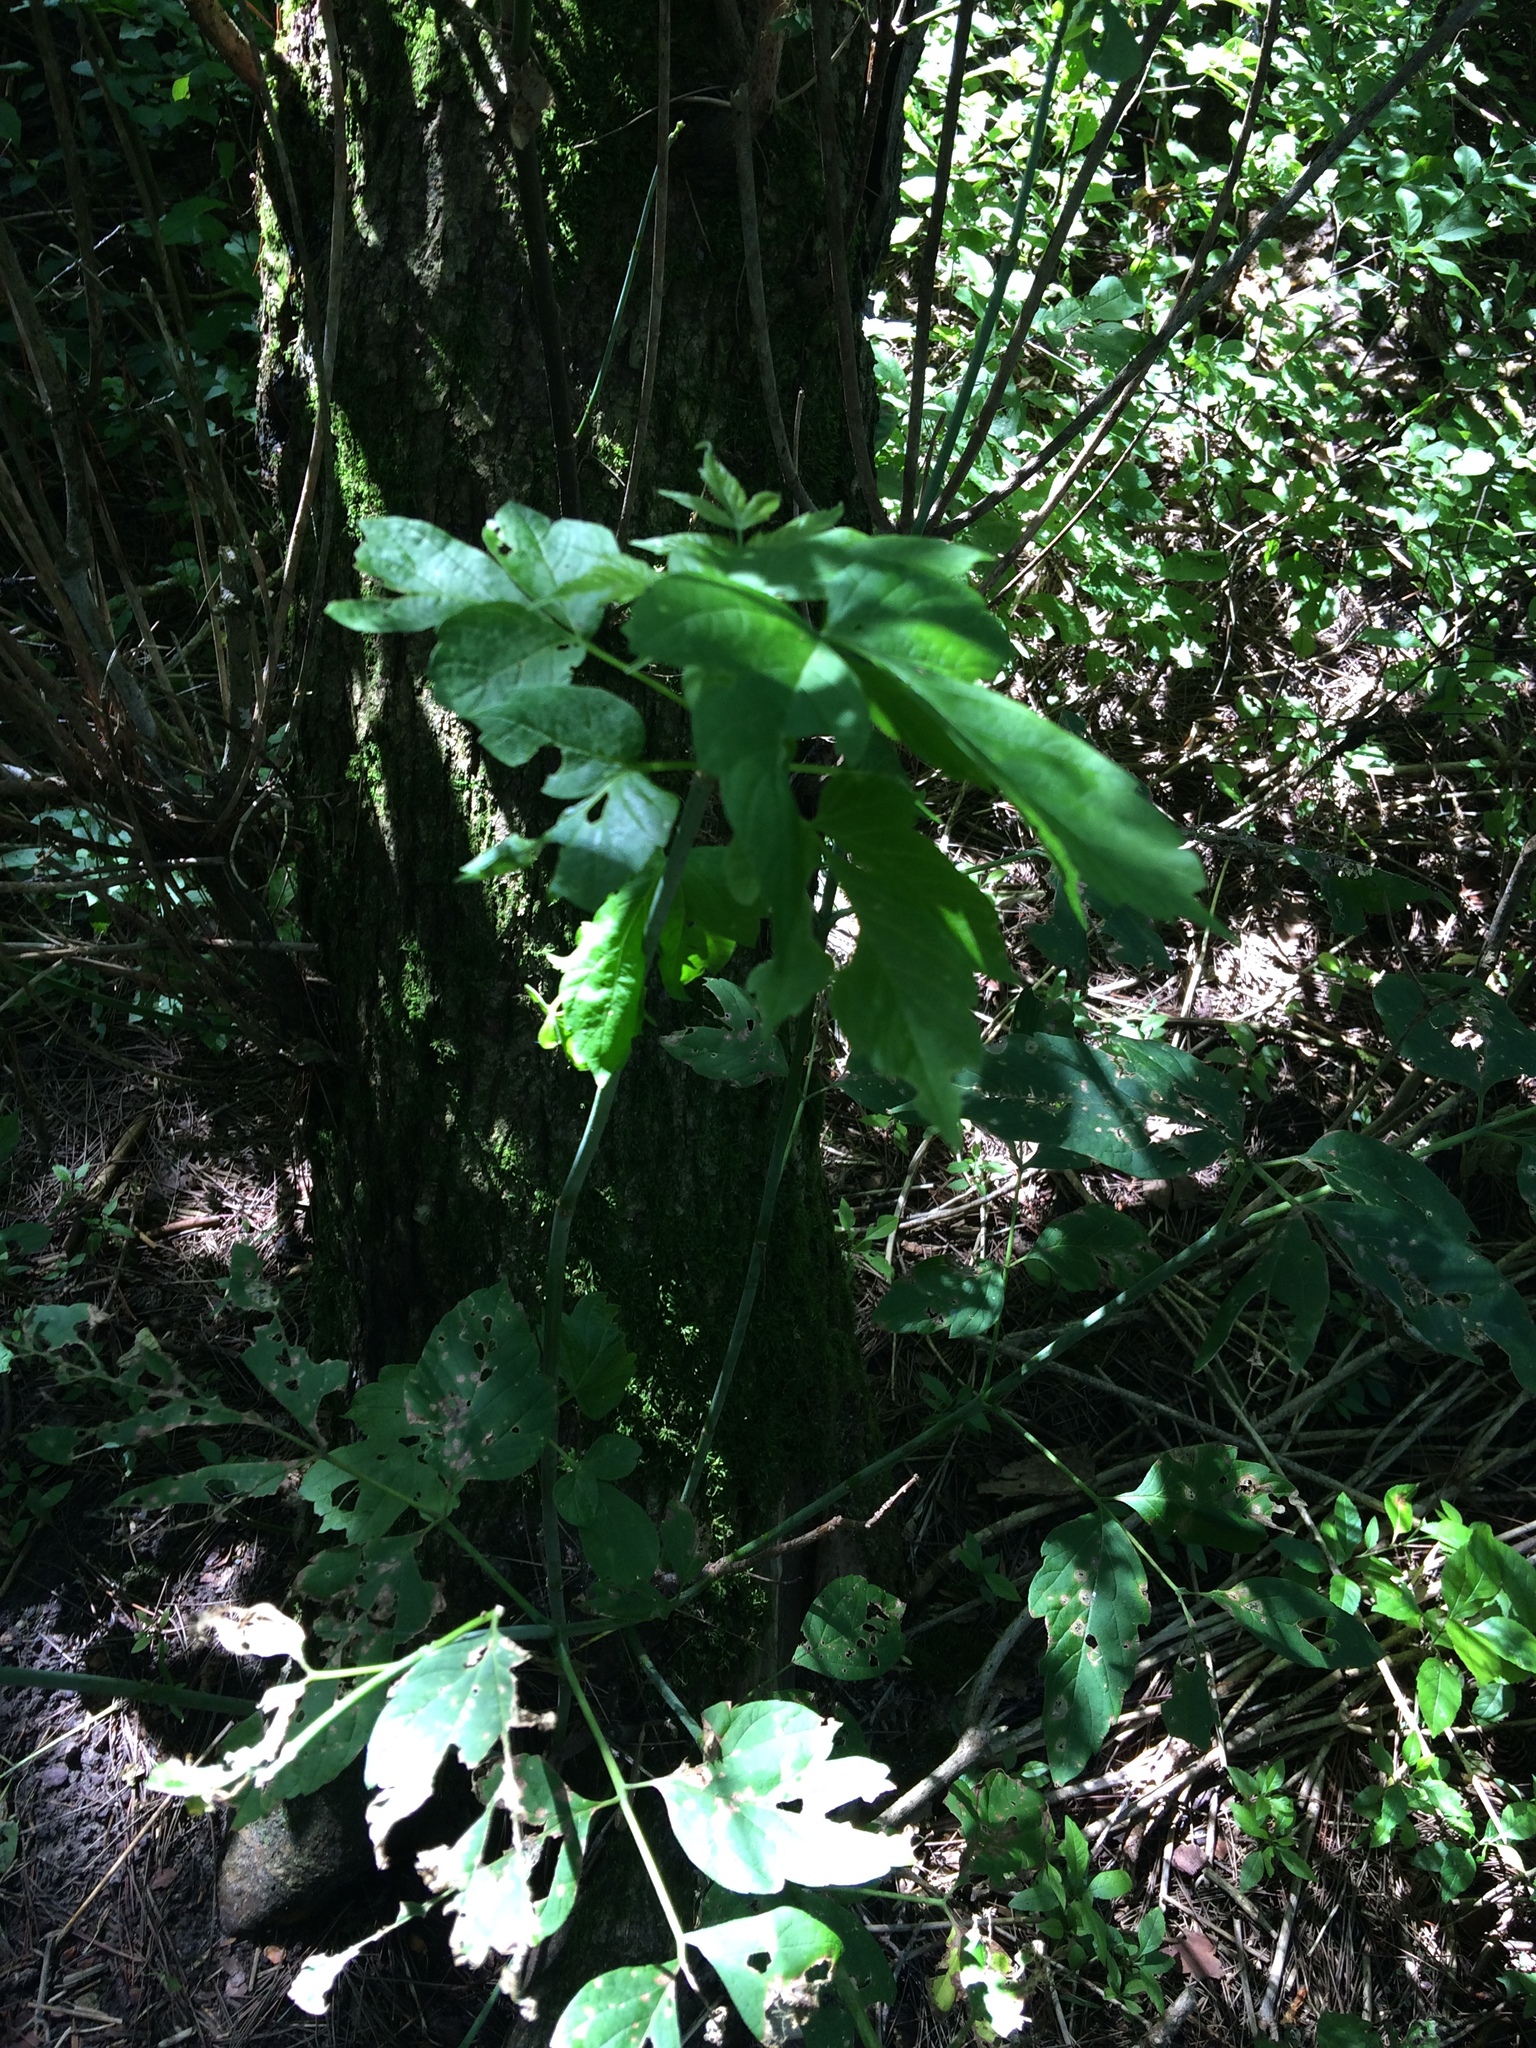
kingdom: Plantae
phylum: Tracheophyta
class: Magnoliopsida
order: Sapindales
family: Sapindaceae
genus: Acer
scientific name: Acer negundo
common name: Ashleaf maple
